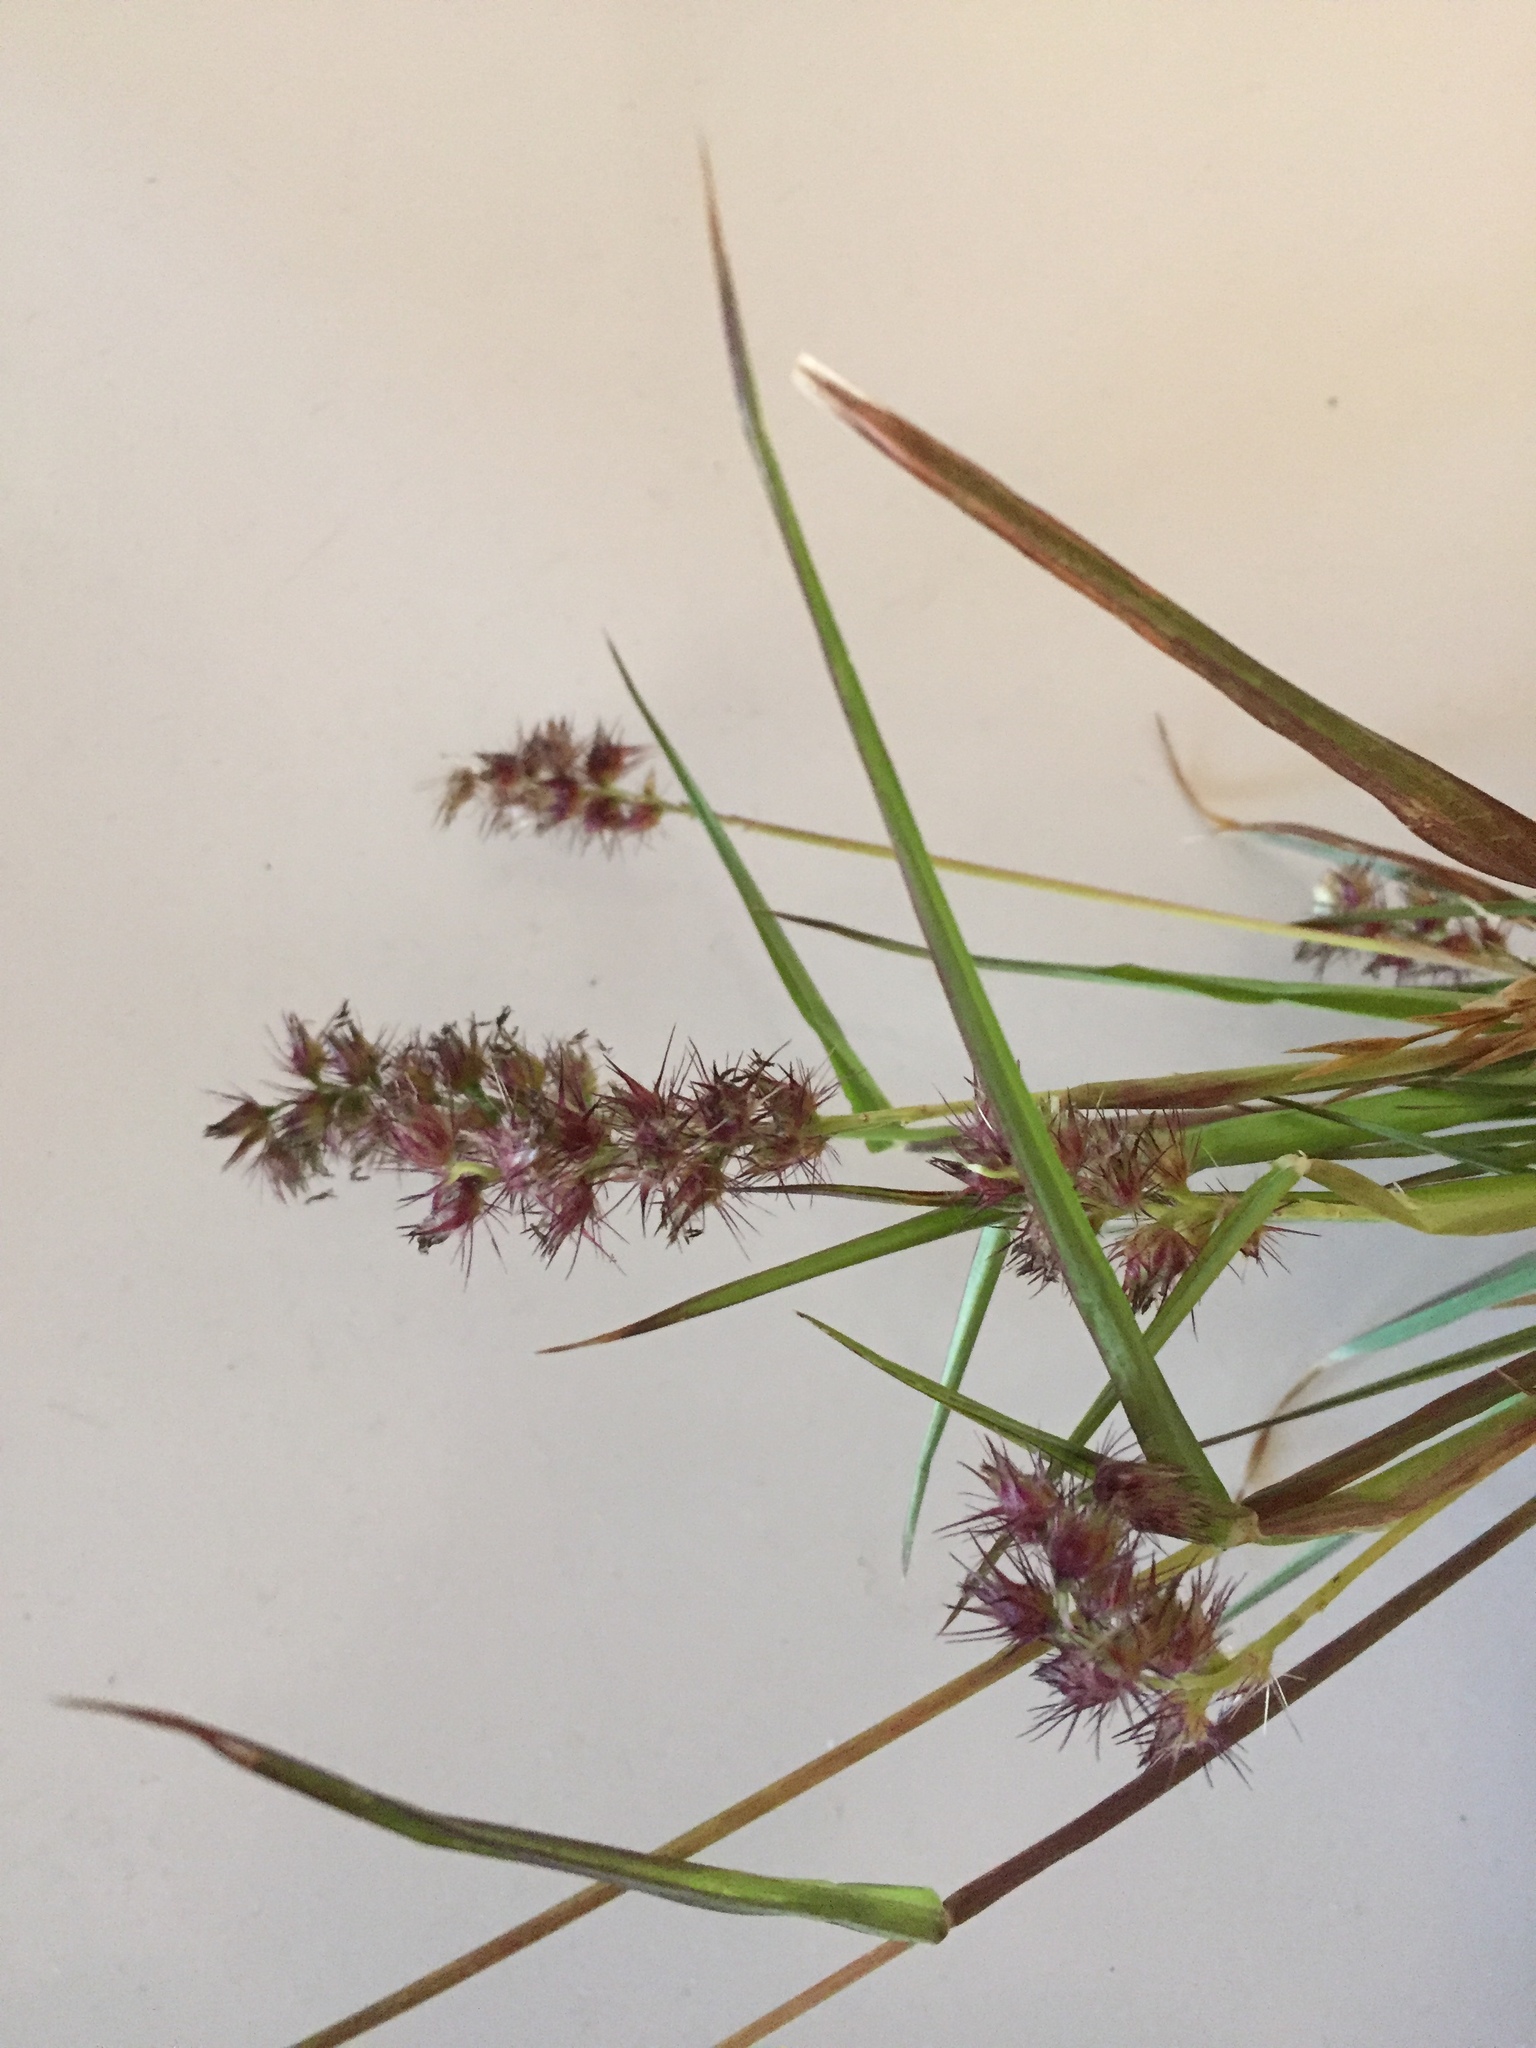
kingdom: Plantae
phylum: Tracheophyta
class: Liliopsida
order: Poales
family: Poaceae
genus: Cenchrus
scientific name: Cenchrus echinatus
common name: Southern sandbur
